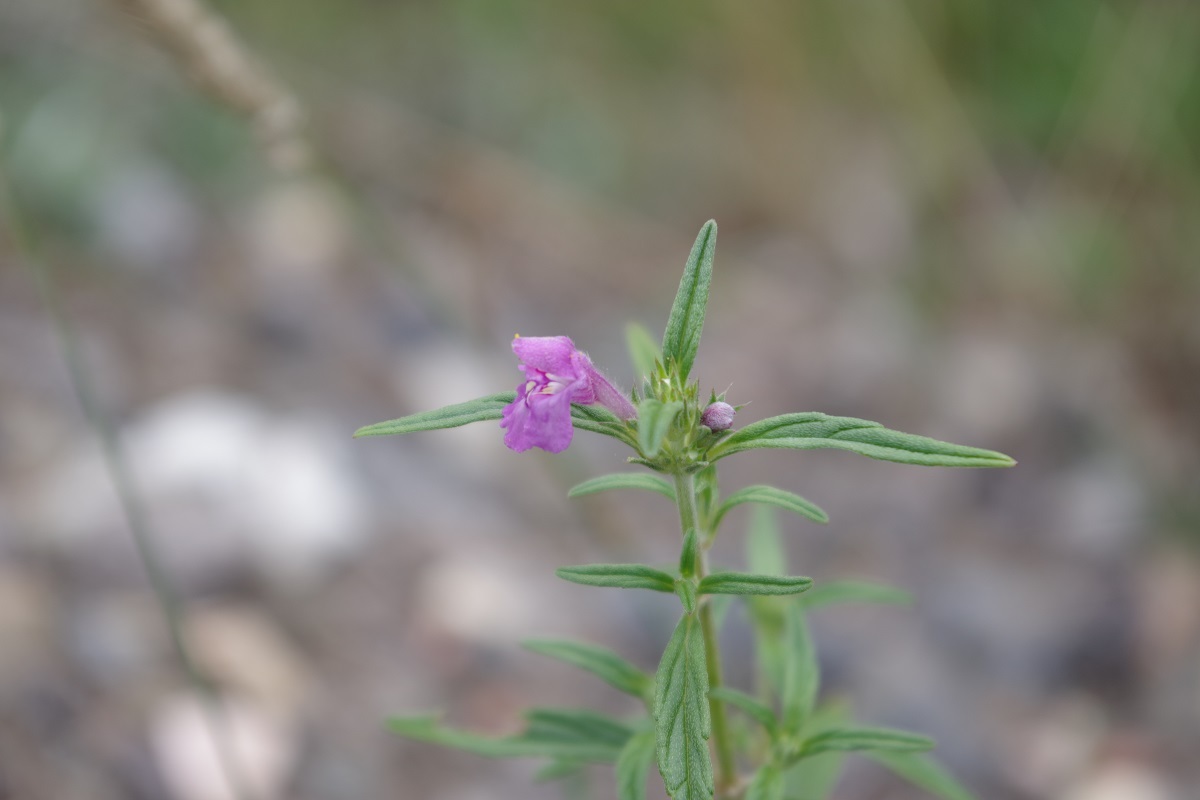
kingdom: Plantae
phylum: Tracheophyta
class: Magnoliopsida
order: Lamiales
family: Lamiaceae
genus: Galeopsis
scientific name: Galeopsis angustifolia
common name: Red hemp-nettle
